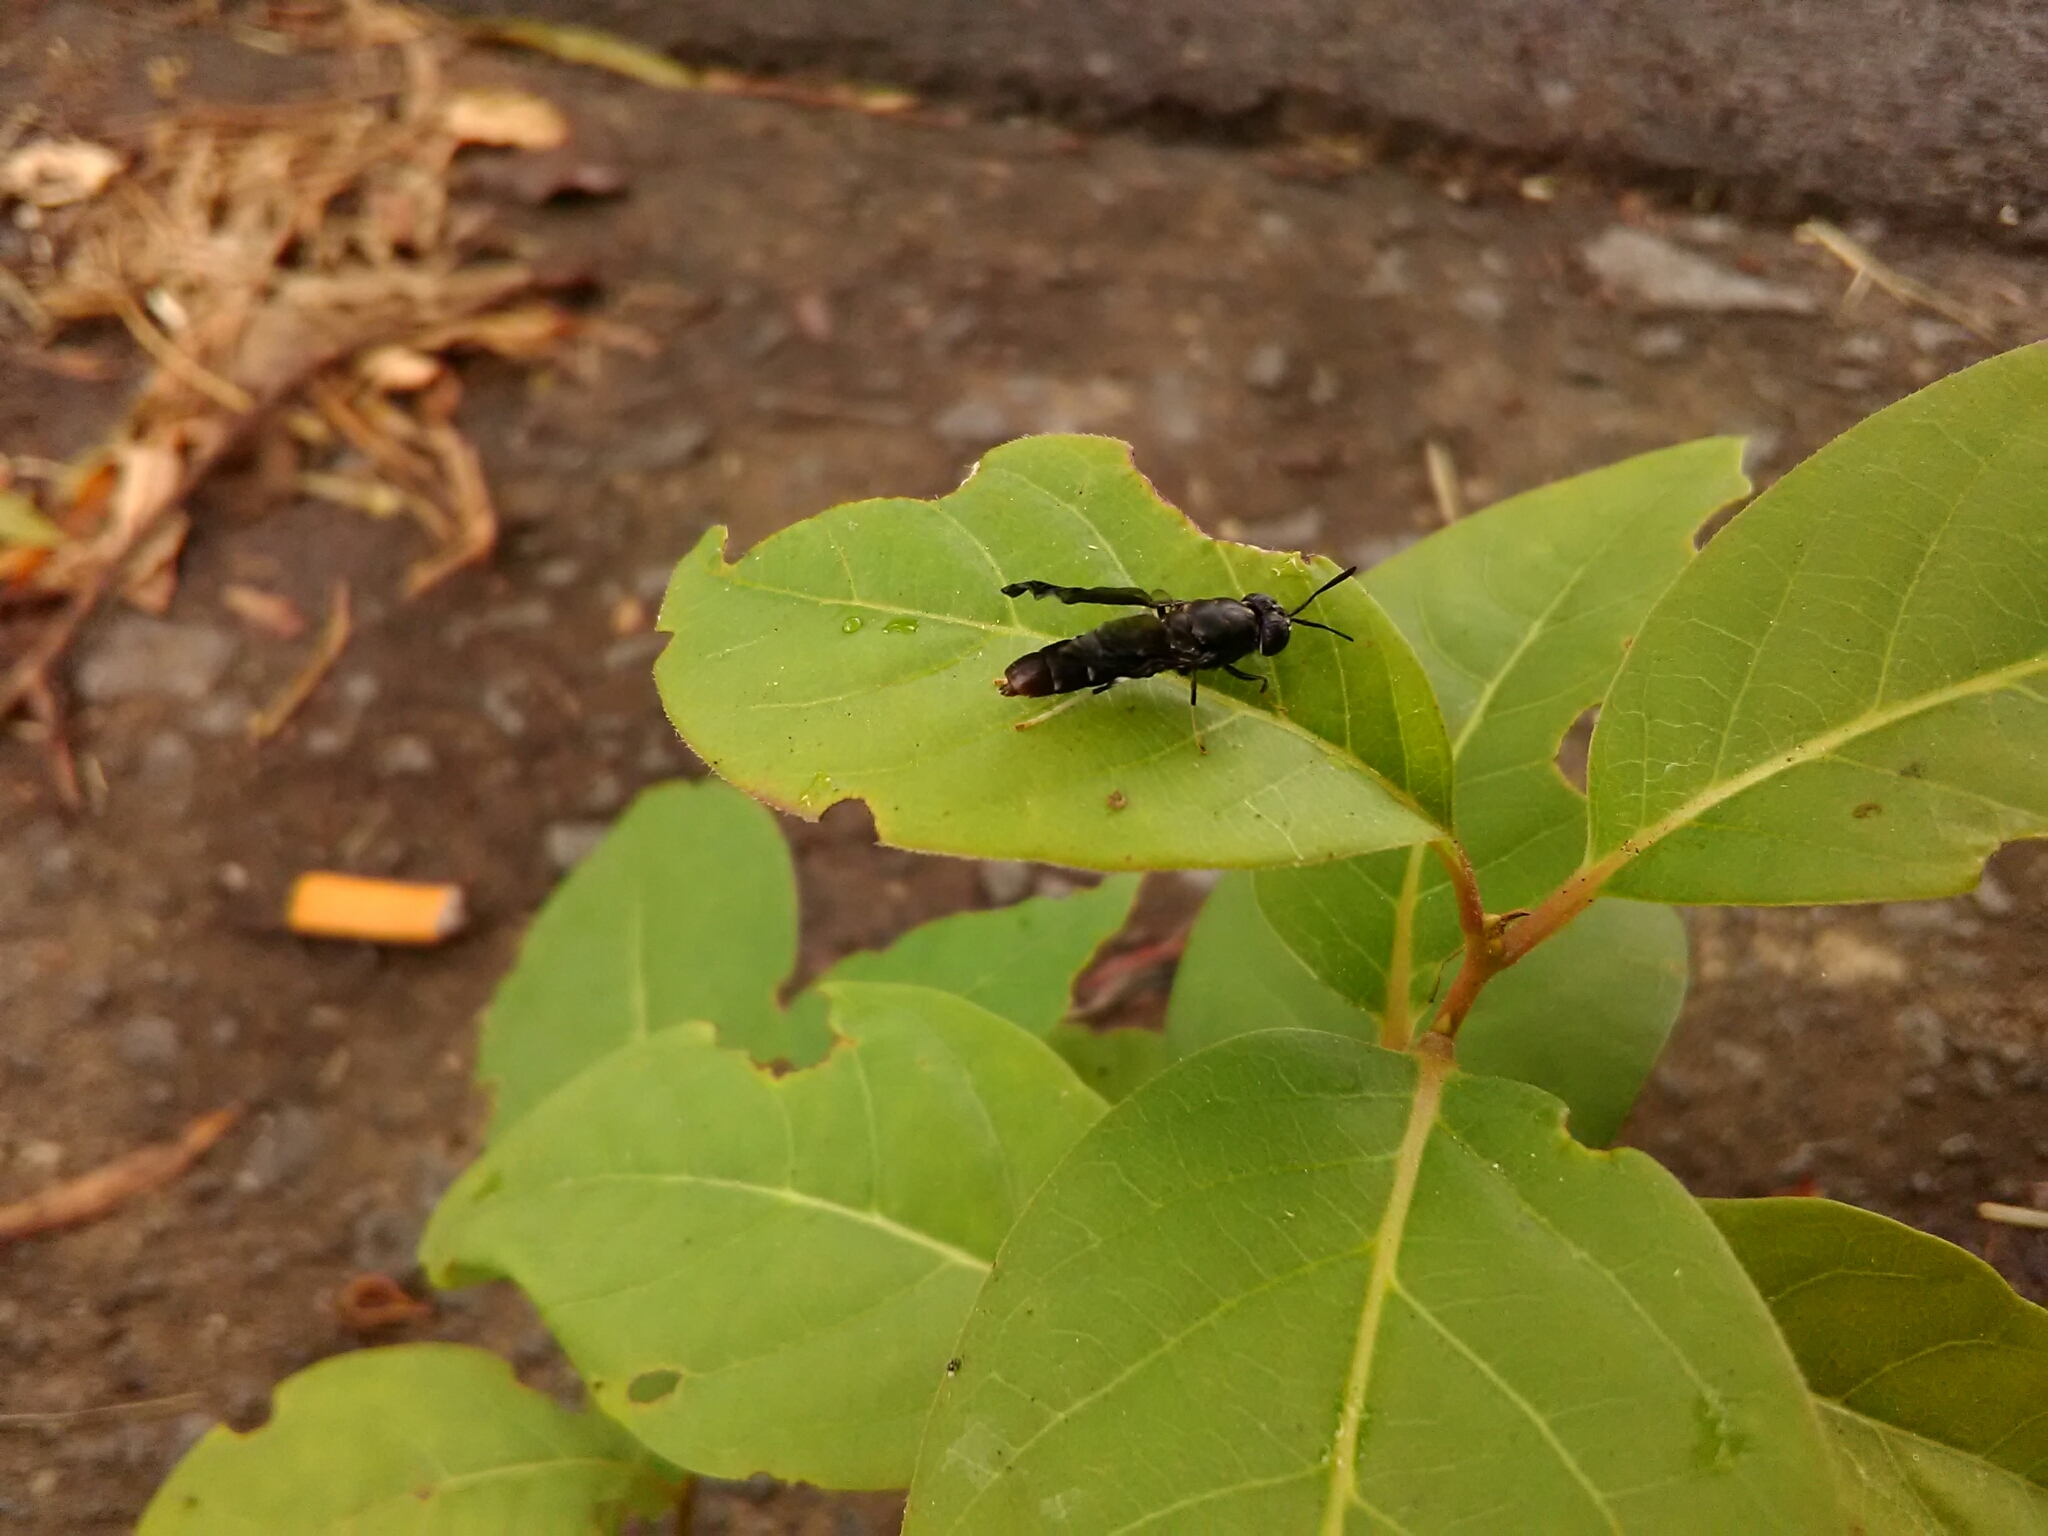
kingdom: Animalia
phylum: Arthropoda
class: Insecta
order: Diptera
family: Stratiomyidae
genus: Hermetia
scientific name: Hermetia illucens
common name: Black soldier fly
